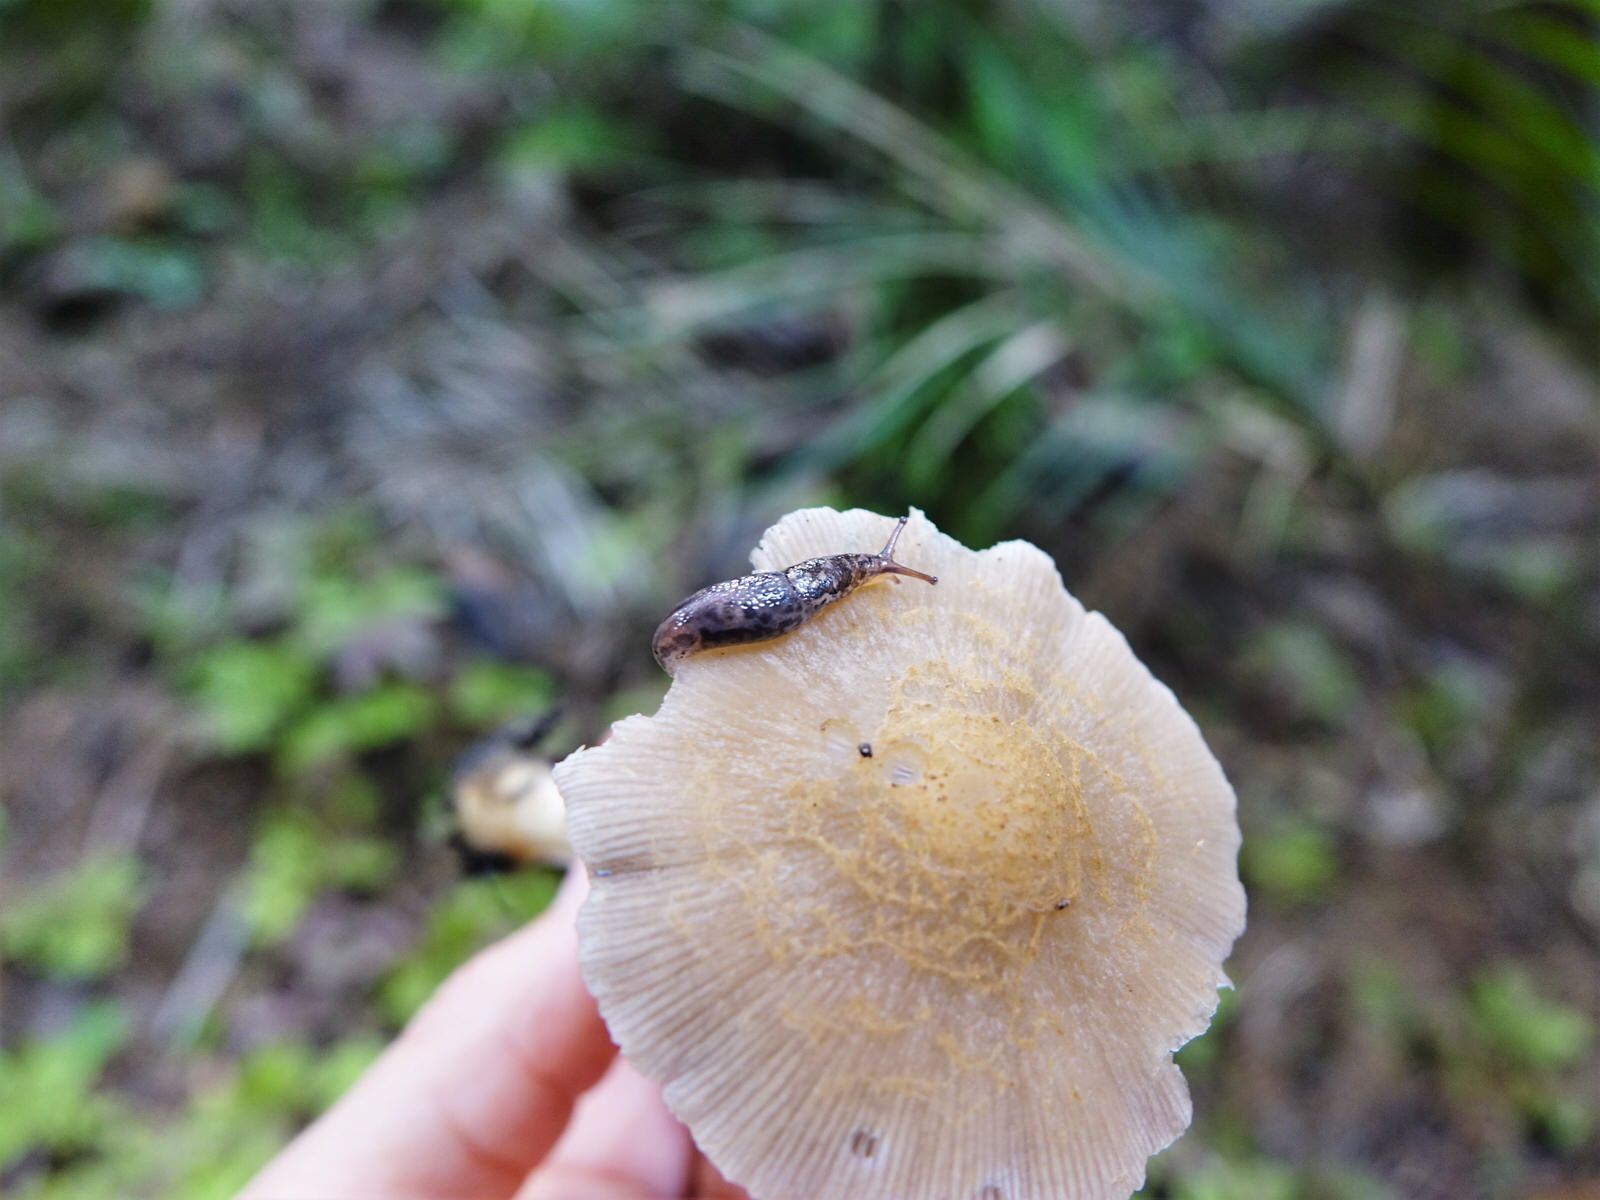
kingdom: Animalia
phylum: Mollusca
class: Gastropoda
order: Stylommatophora
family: Limacidae
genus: Limax
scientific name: Limax maximus
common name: Great grey slug
